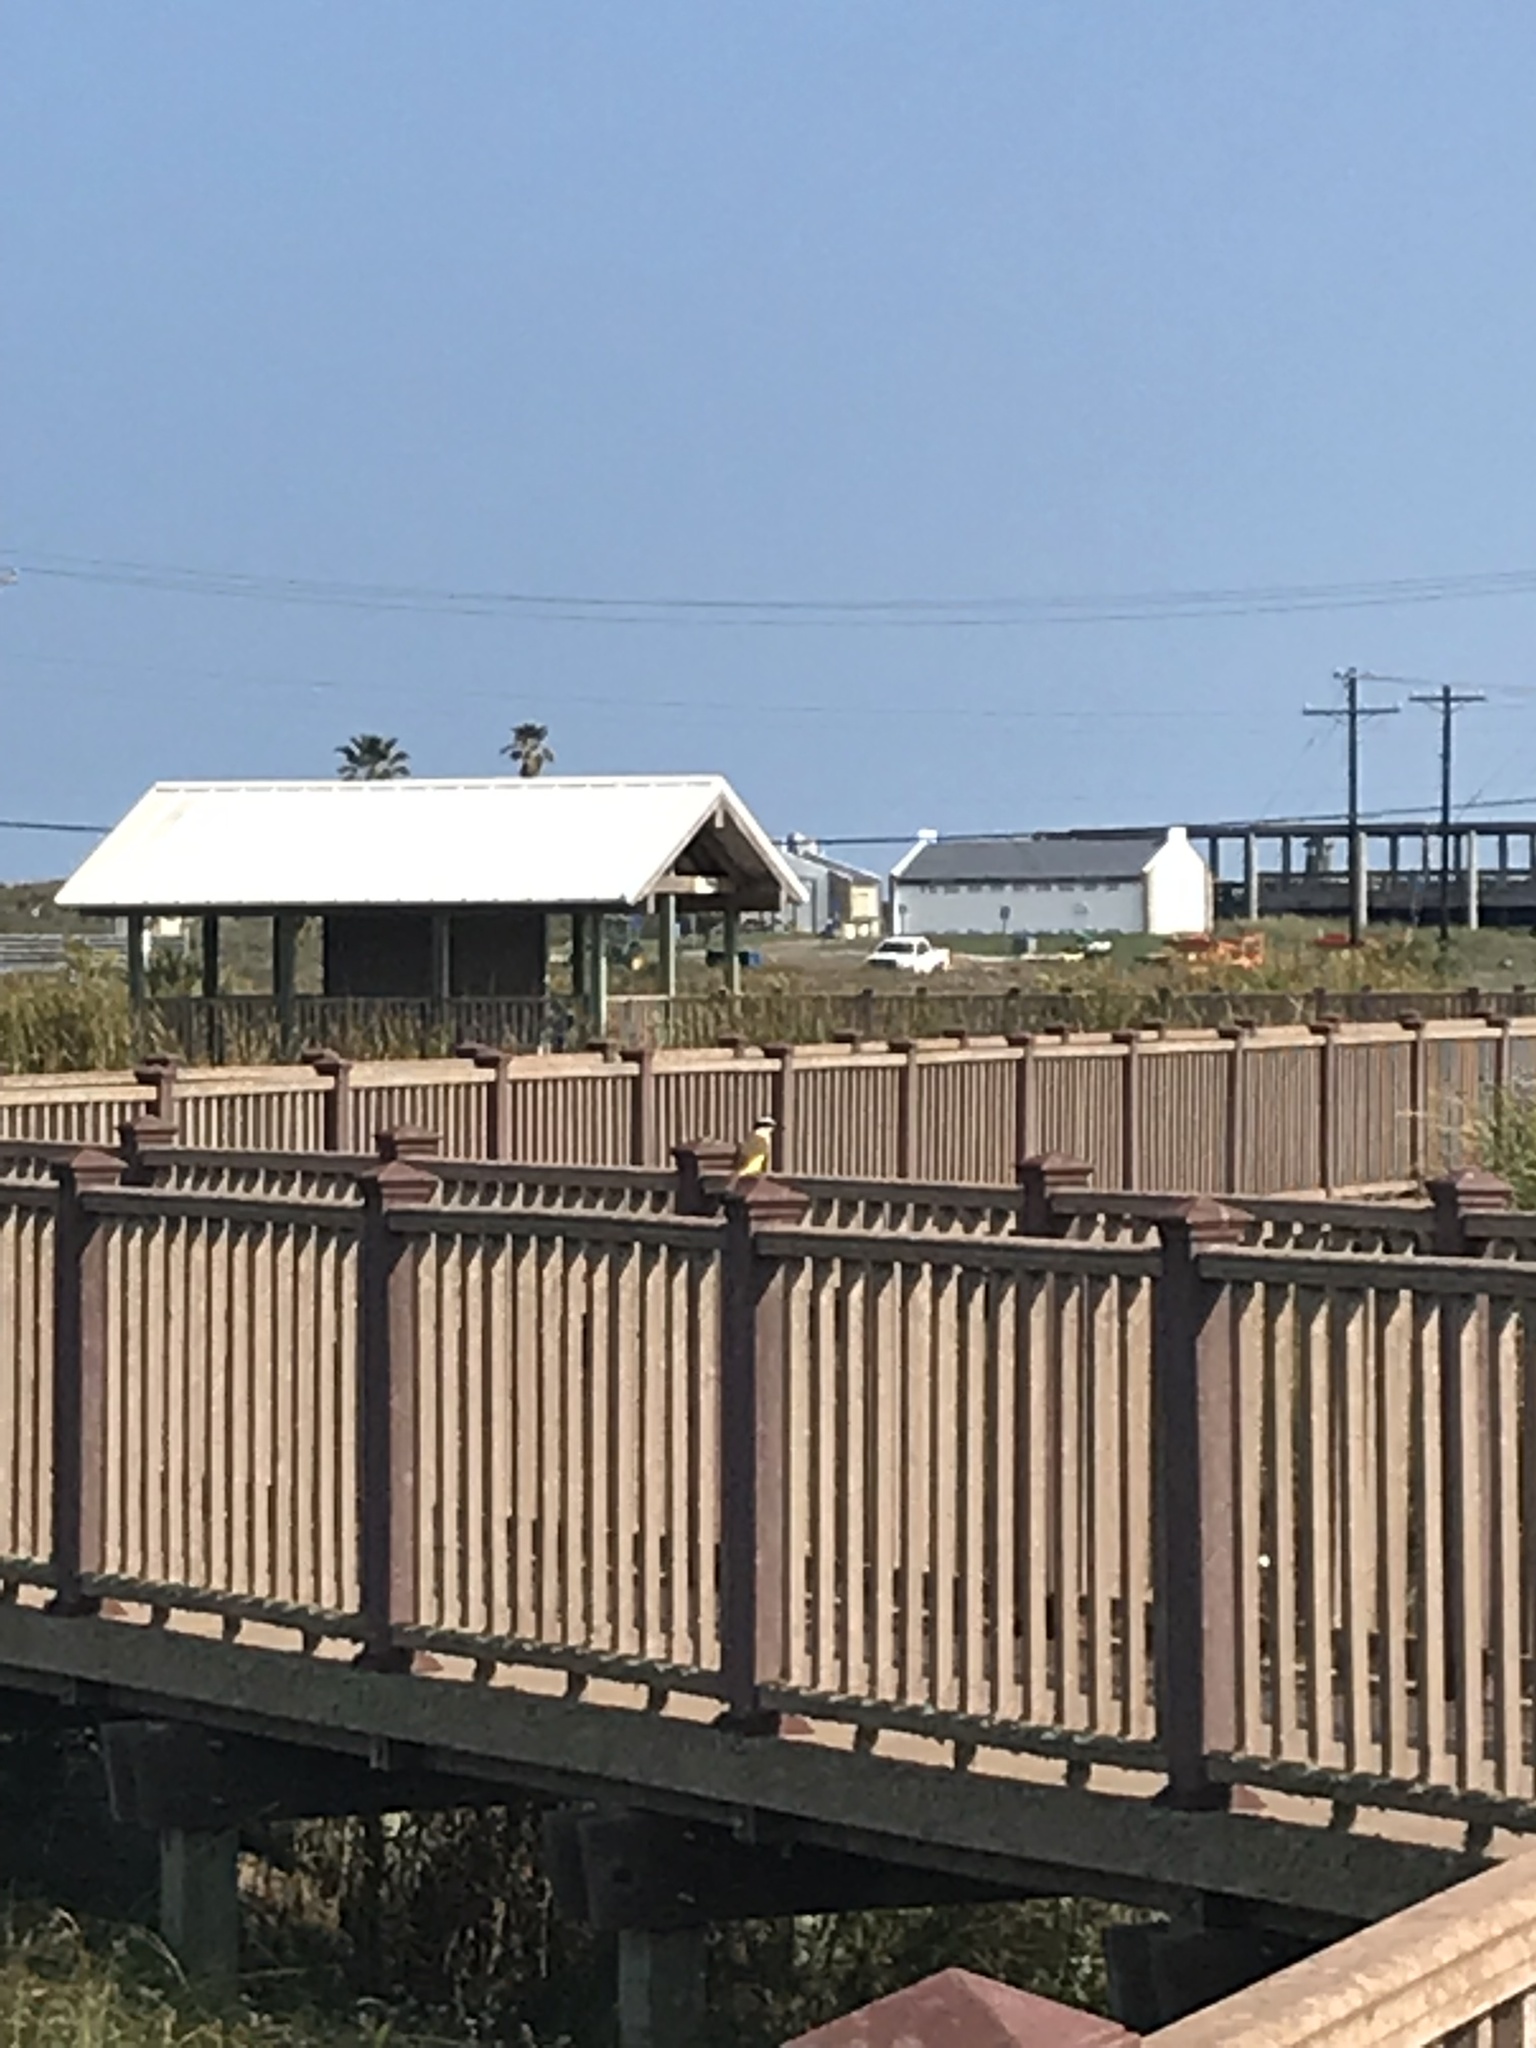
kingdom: Animalia
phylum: Chordata
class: Aves
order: Passeriformes
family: Tyrannidae
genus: Pitangus
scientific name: Pitangus sulphuratus
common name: Great kiskadee
